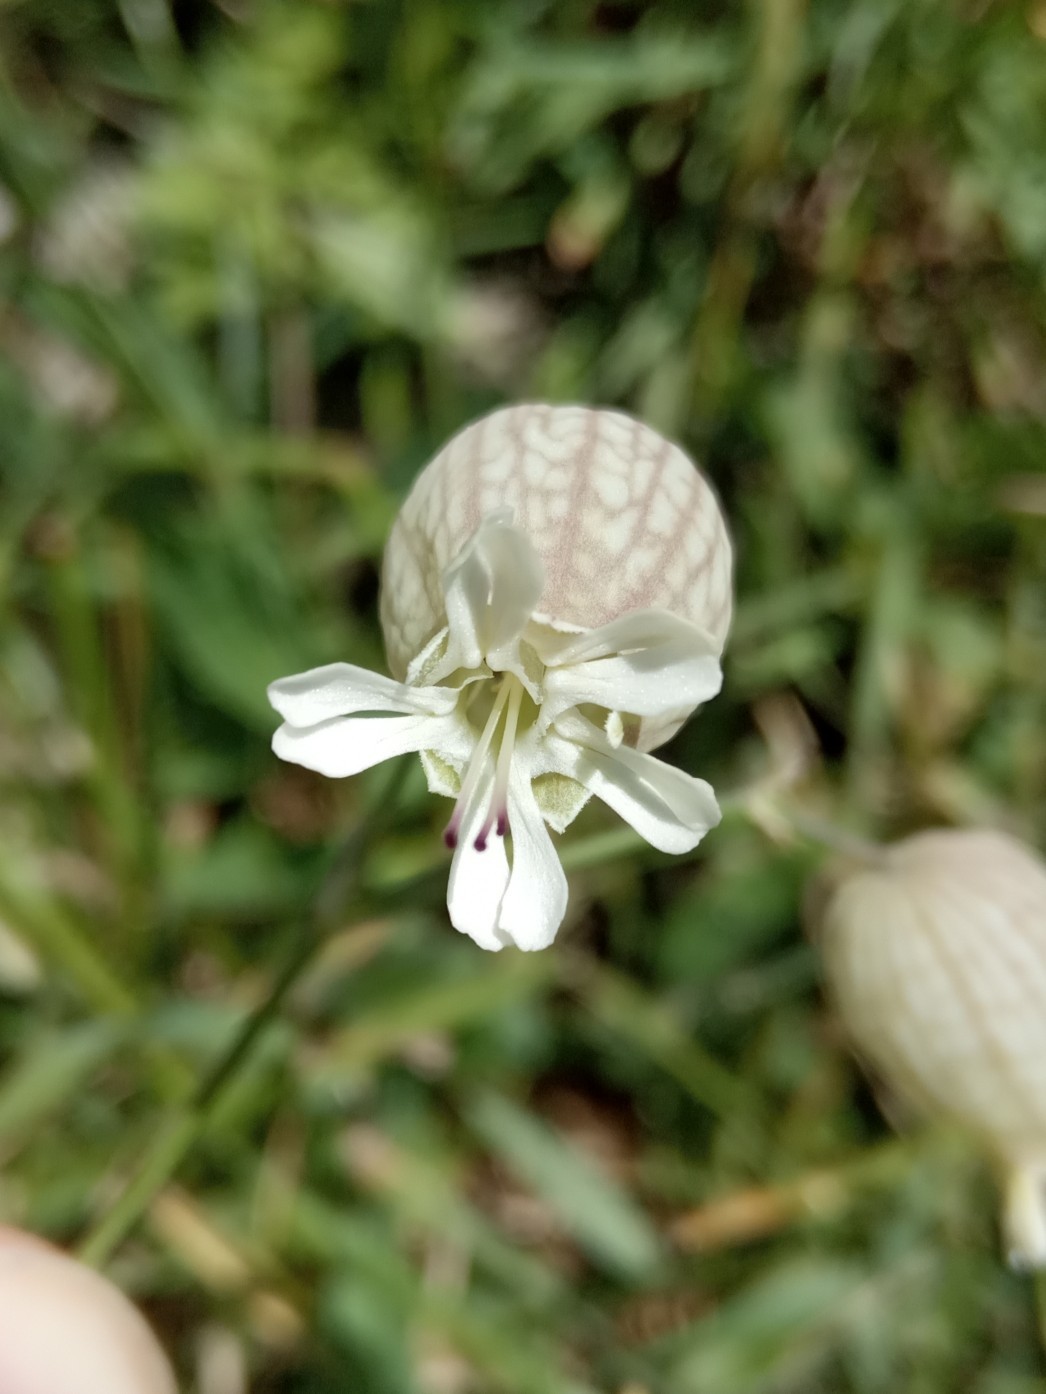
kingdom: Plantae
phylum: Tracheophyta
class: Magnoliopsida
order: Caryophyllales
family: Caryophyllaceae
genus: Silene
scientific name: Silene vulgaris
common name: Bladder campion
